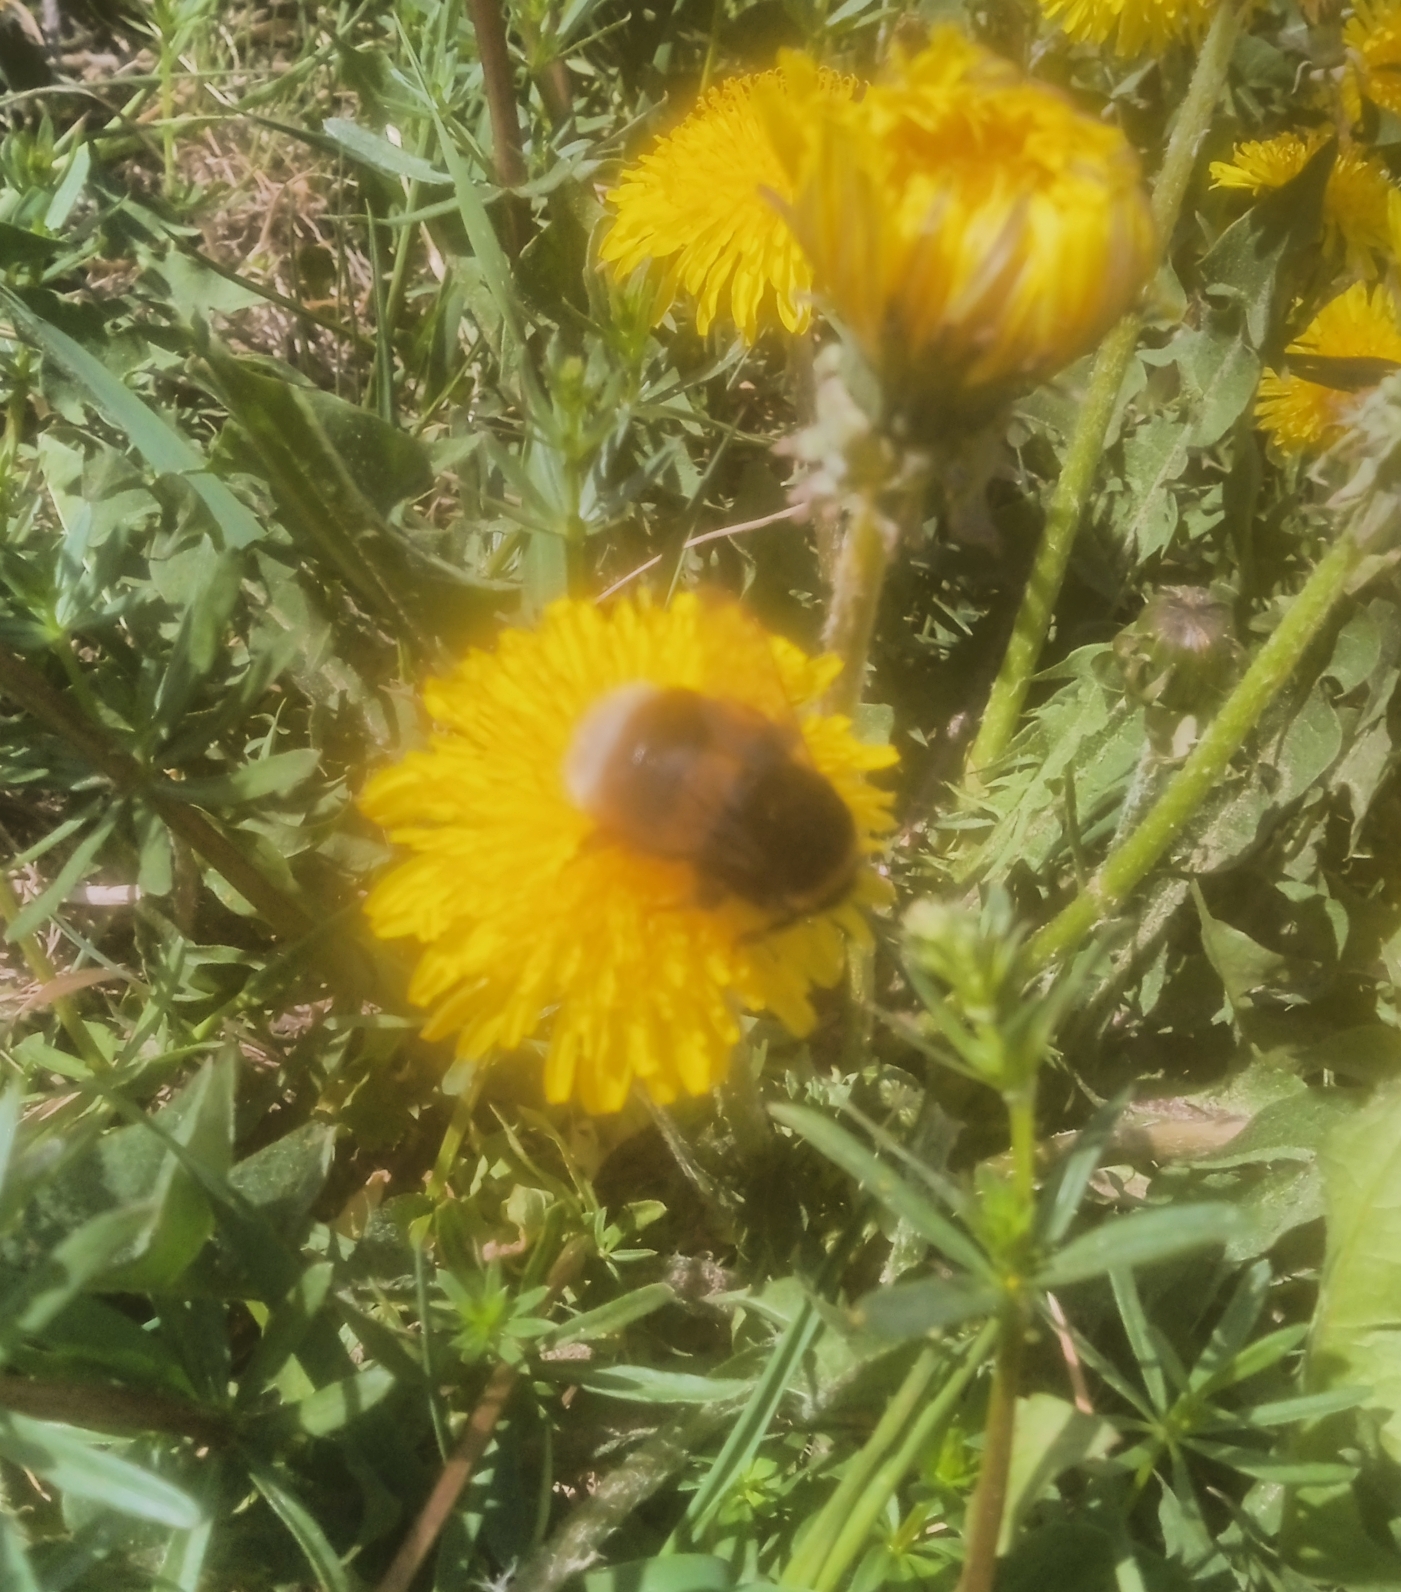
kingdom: Animalia
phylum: Arthropoda
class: Insecta
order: Hymenoptera
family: Apidae
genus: Bombus
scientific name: Bombus
